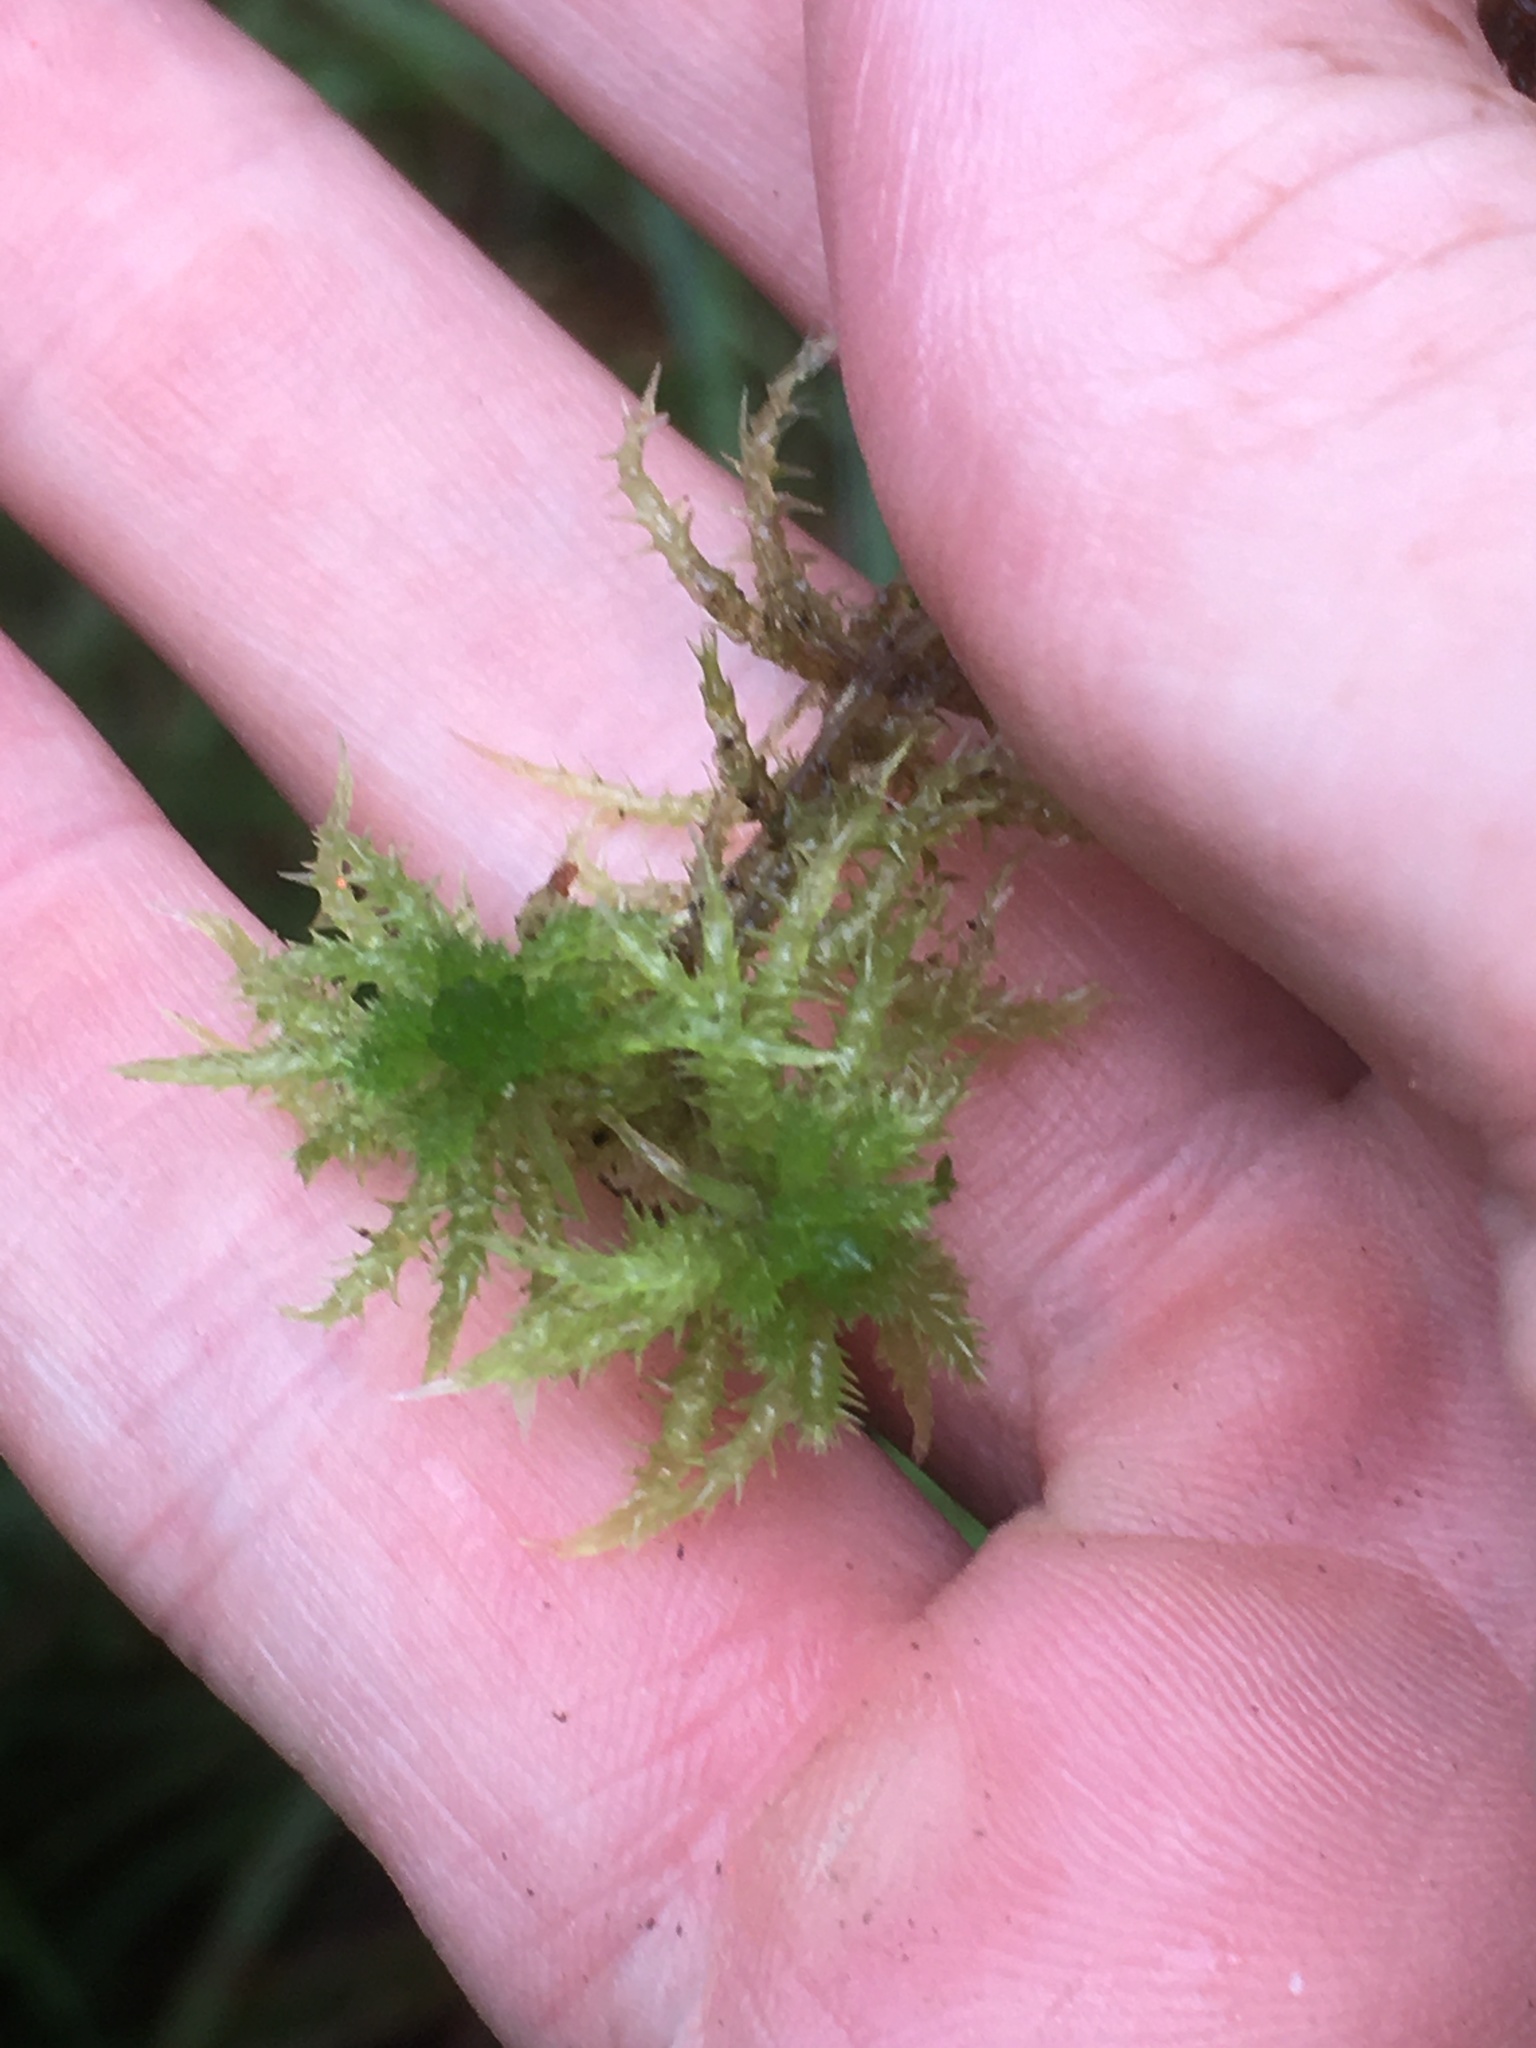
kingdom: Plantae
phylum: Bryophyta
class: Sphagnopsida
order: Sphagnales
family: Sphagnaceae
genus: Sphagnum
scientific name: Sphagnum squarrosum
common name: Shaggy peat moss
